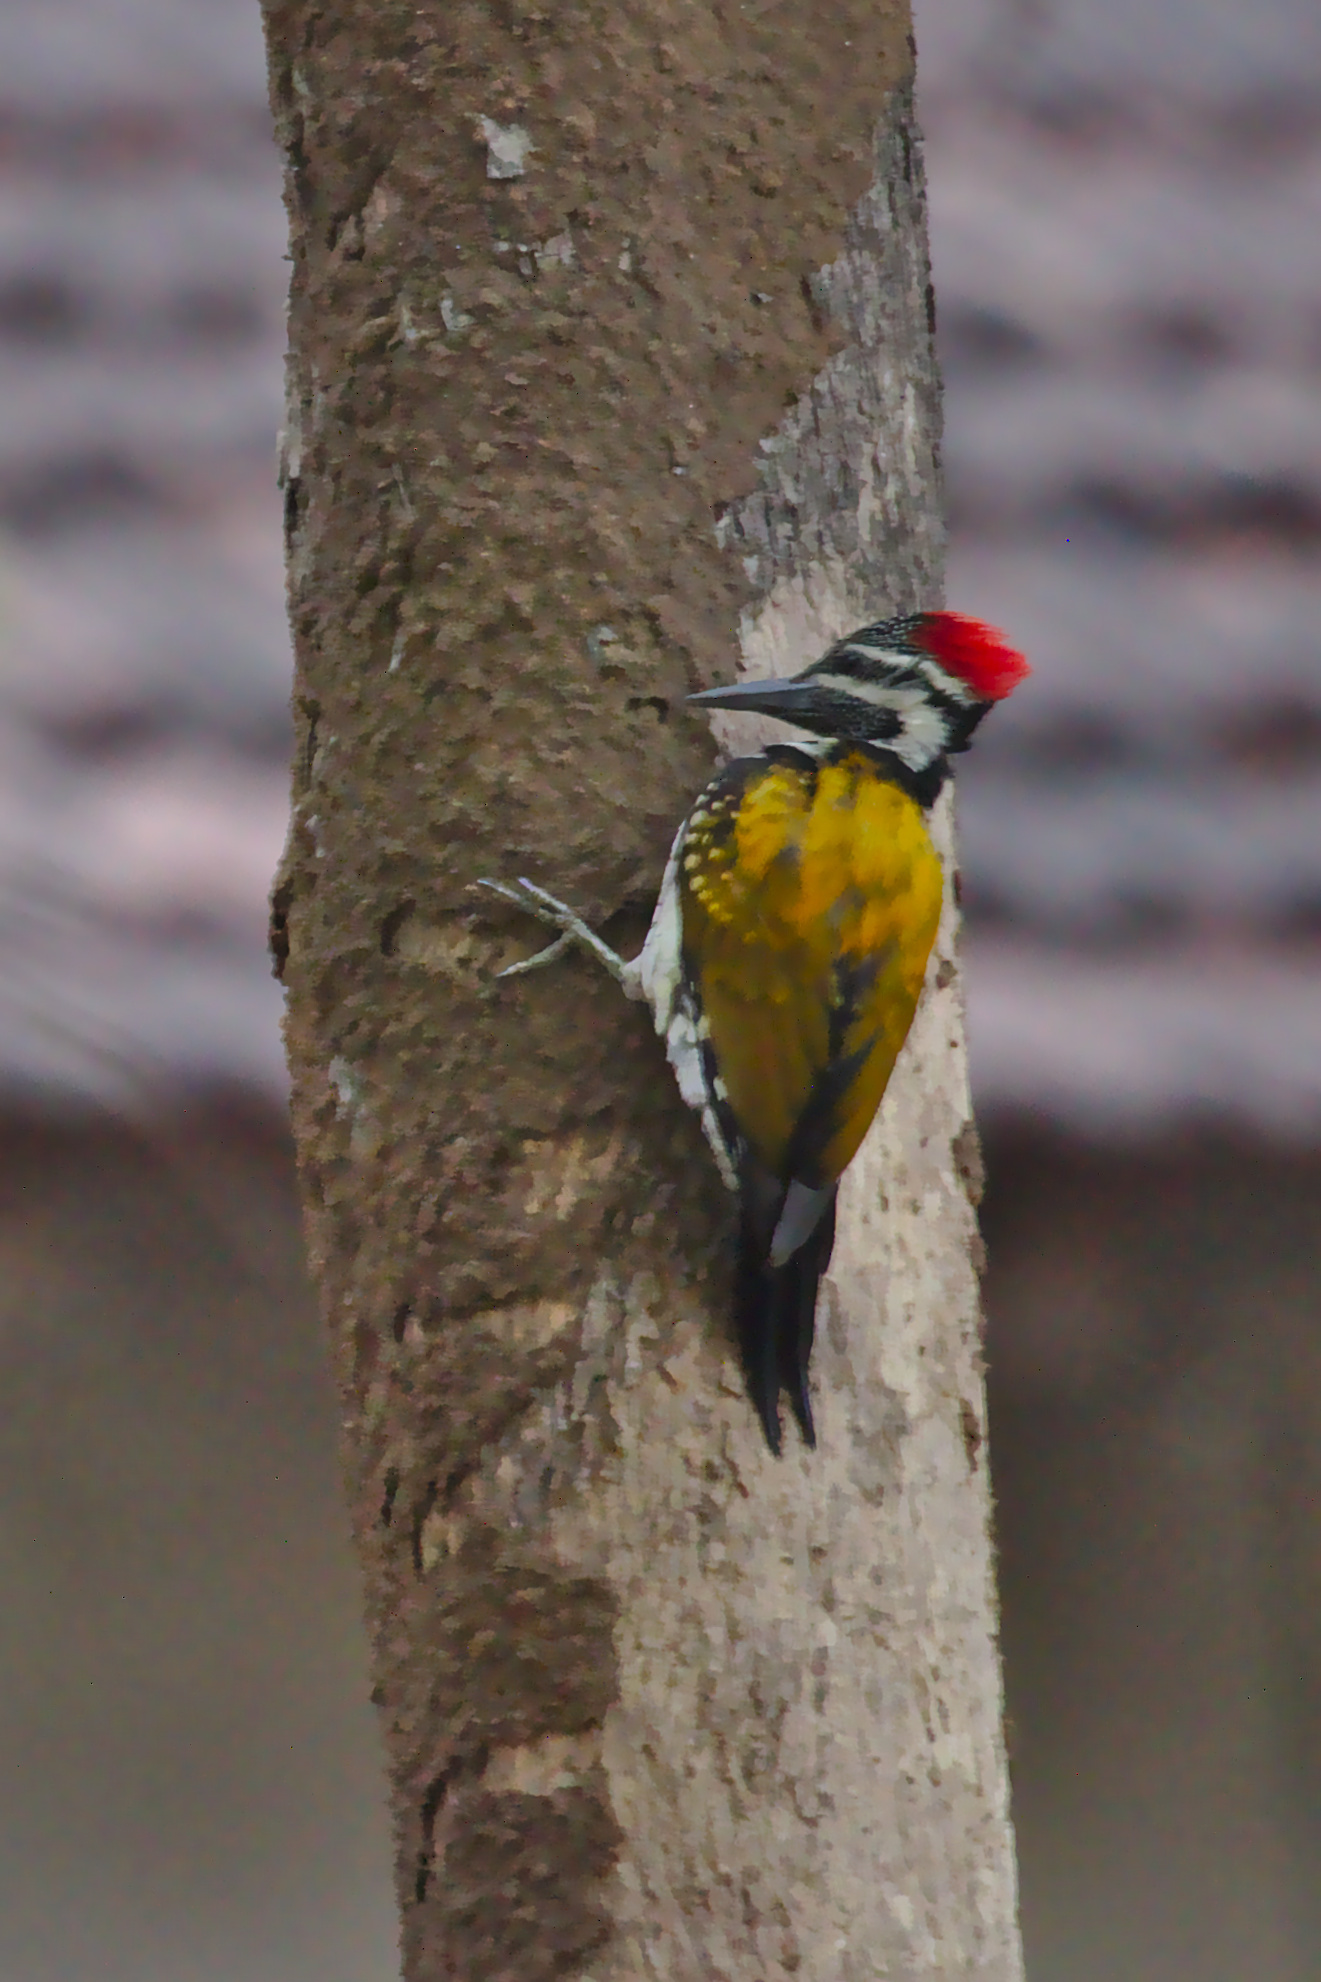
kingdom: Animalia
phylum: Chordata
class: Aves
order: Piciformes
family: Picidae
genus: Dinopium
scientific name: Dinopium benghalense
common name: Black-rumped flameback
